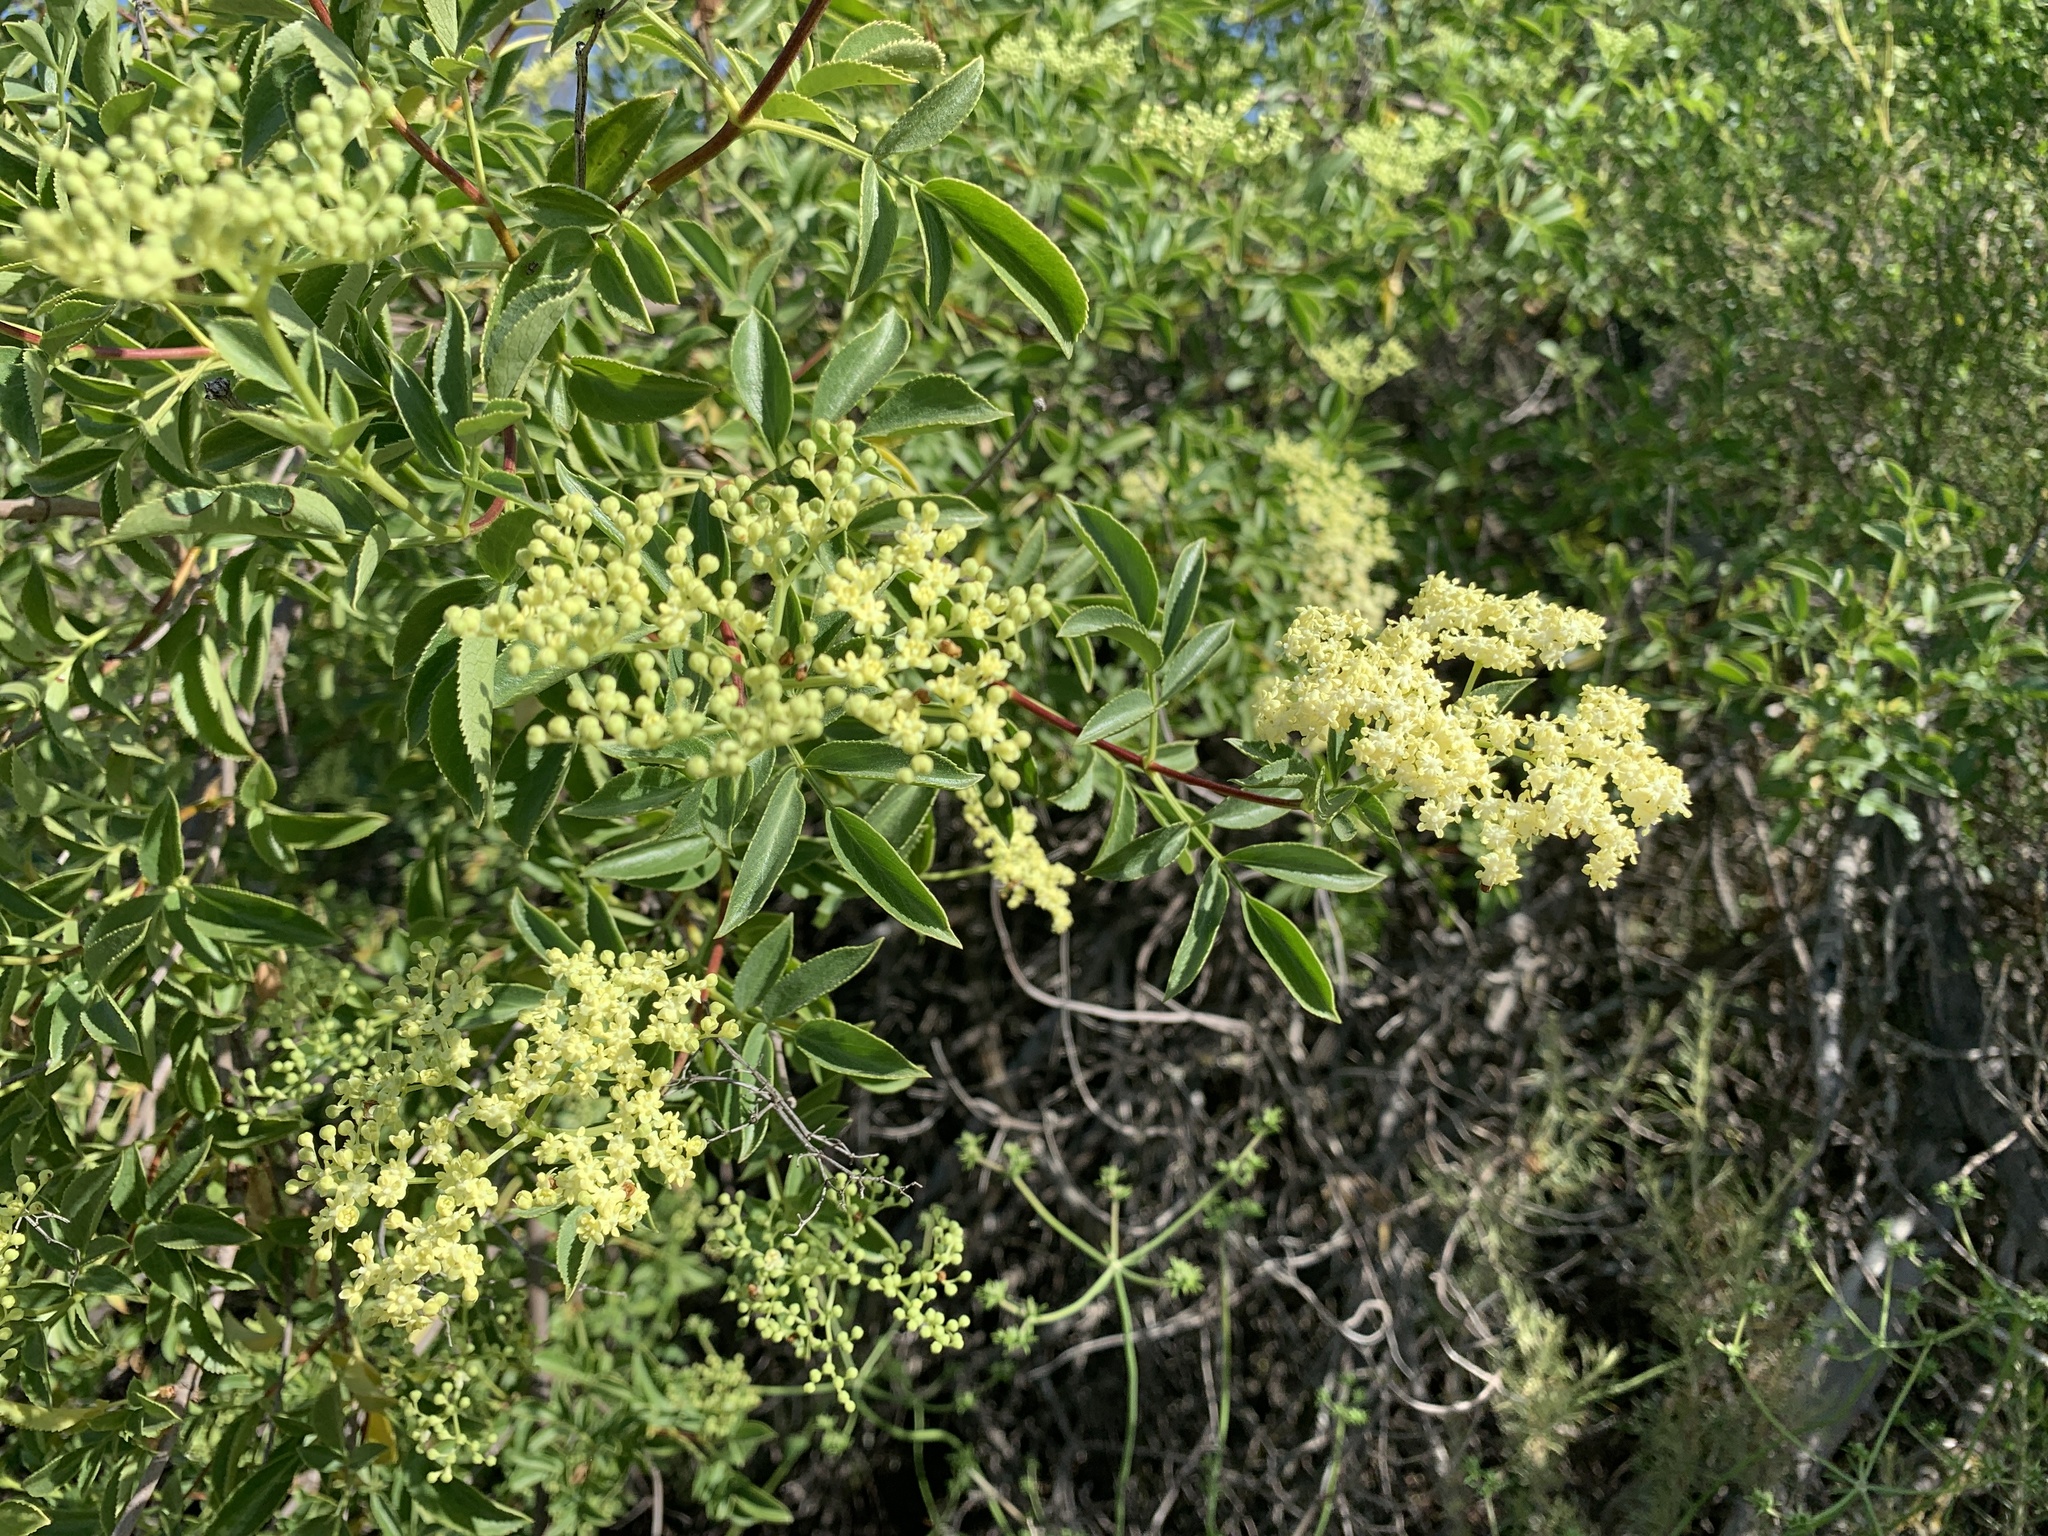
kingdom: Plantae
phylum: Tracheophyta
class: Magnoliopsida
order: Dipsacales
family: Viburnaceae
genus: Sambucus
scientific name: Sambucus cerulea
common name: Blue elder
